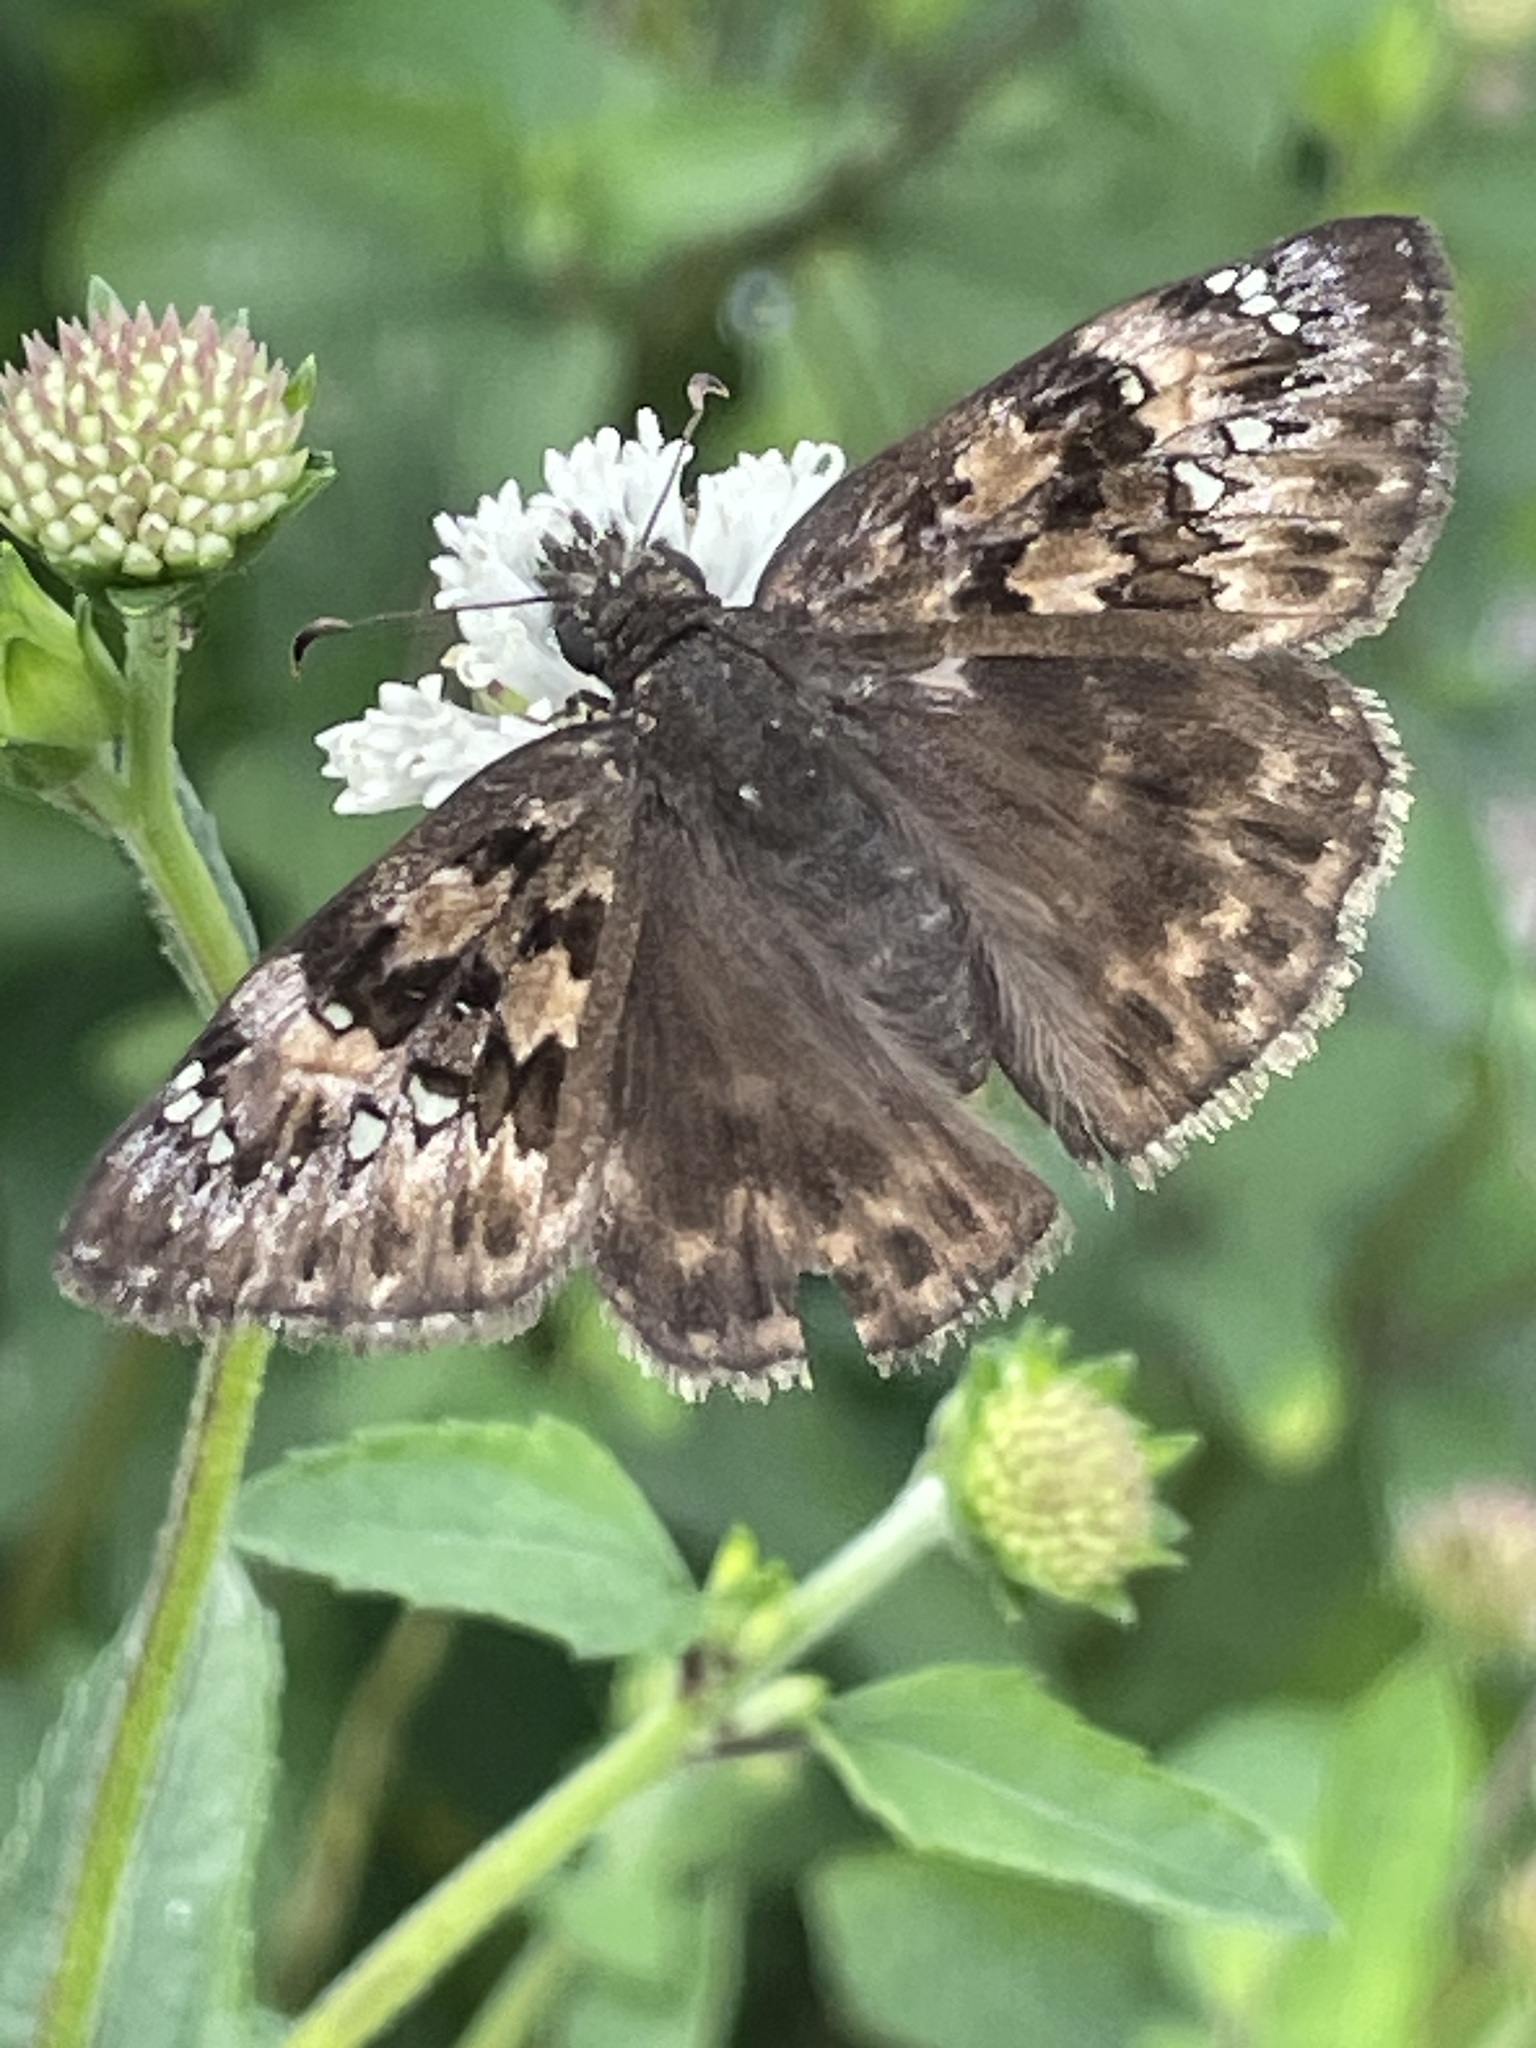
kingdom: Animalia
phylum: Arthropoda
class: Insecta
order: Lepidoptera
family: Hesperiidae
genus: Erynnis
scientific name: Erynnis horatius
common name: Horace's duskywing
